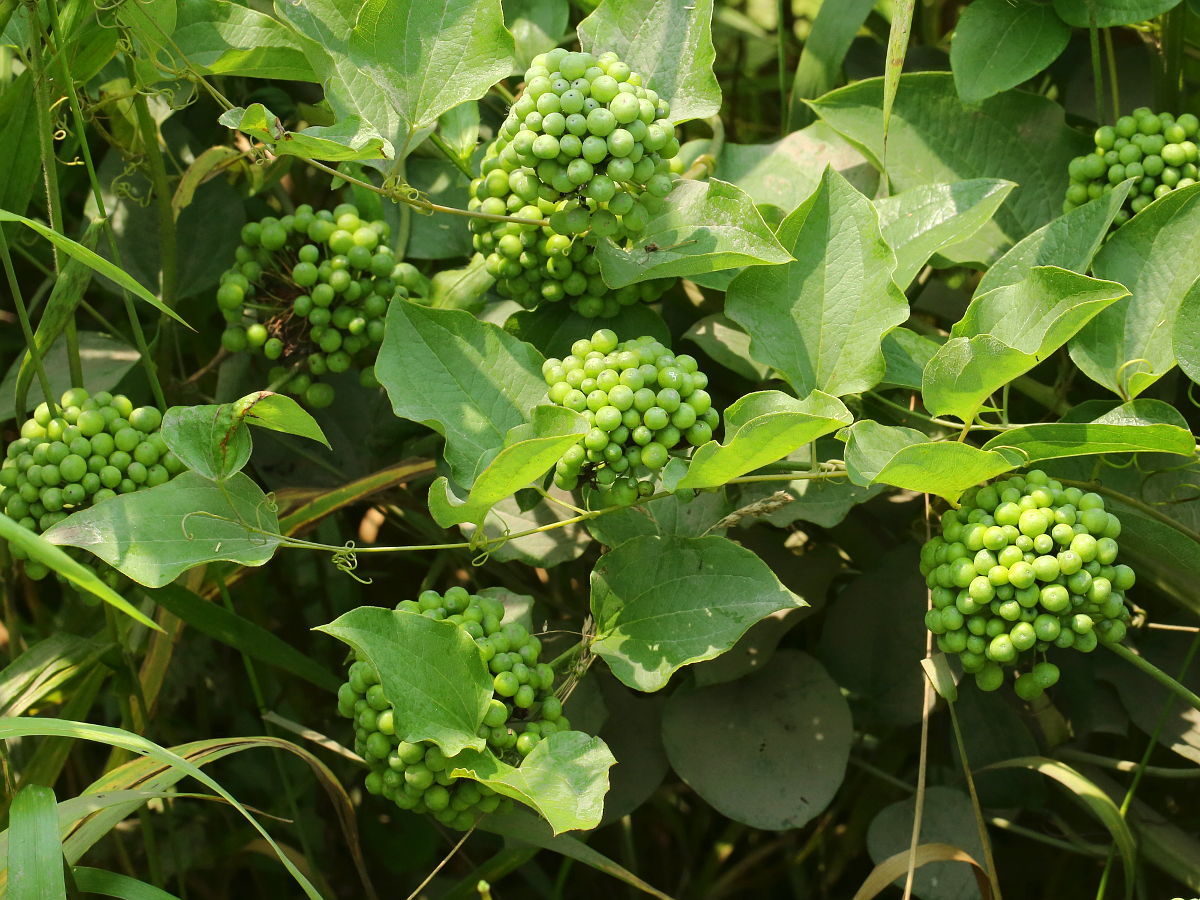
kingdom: Plantae
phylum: Tracheophyta
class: Liliopsida
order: Liliales
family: Smilacaceae
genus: Smilax
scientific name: Smilax lasioneura
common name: Blue ridge carrionflower
